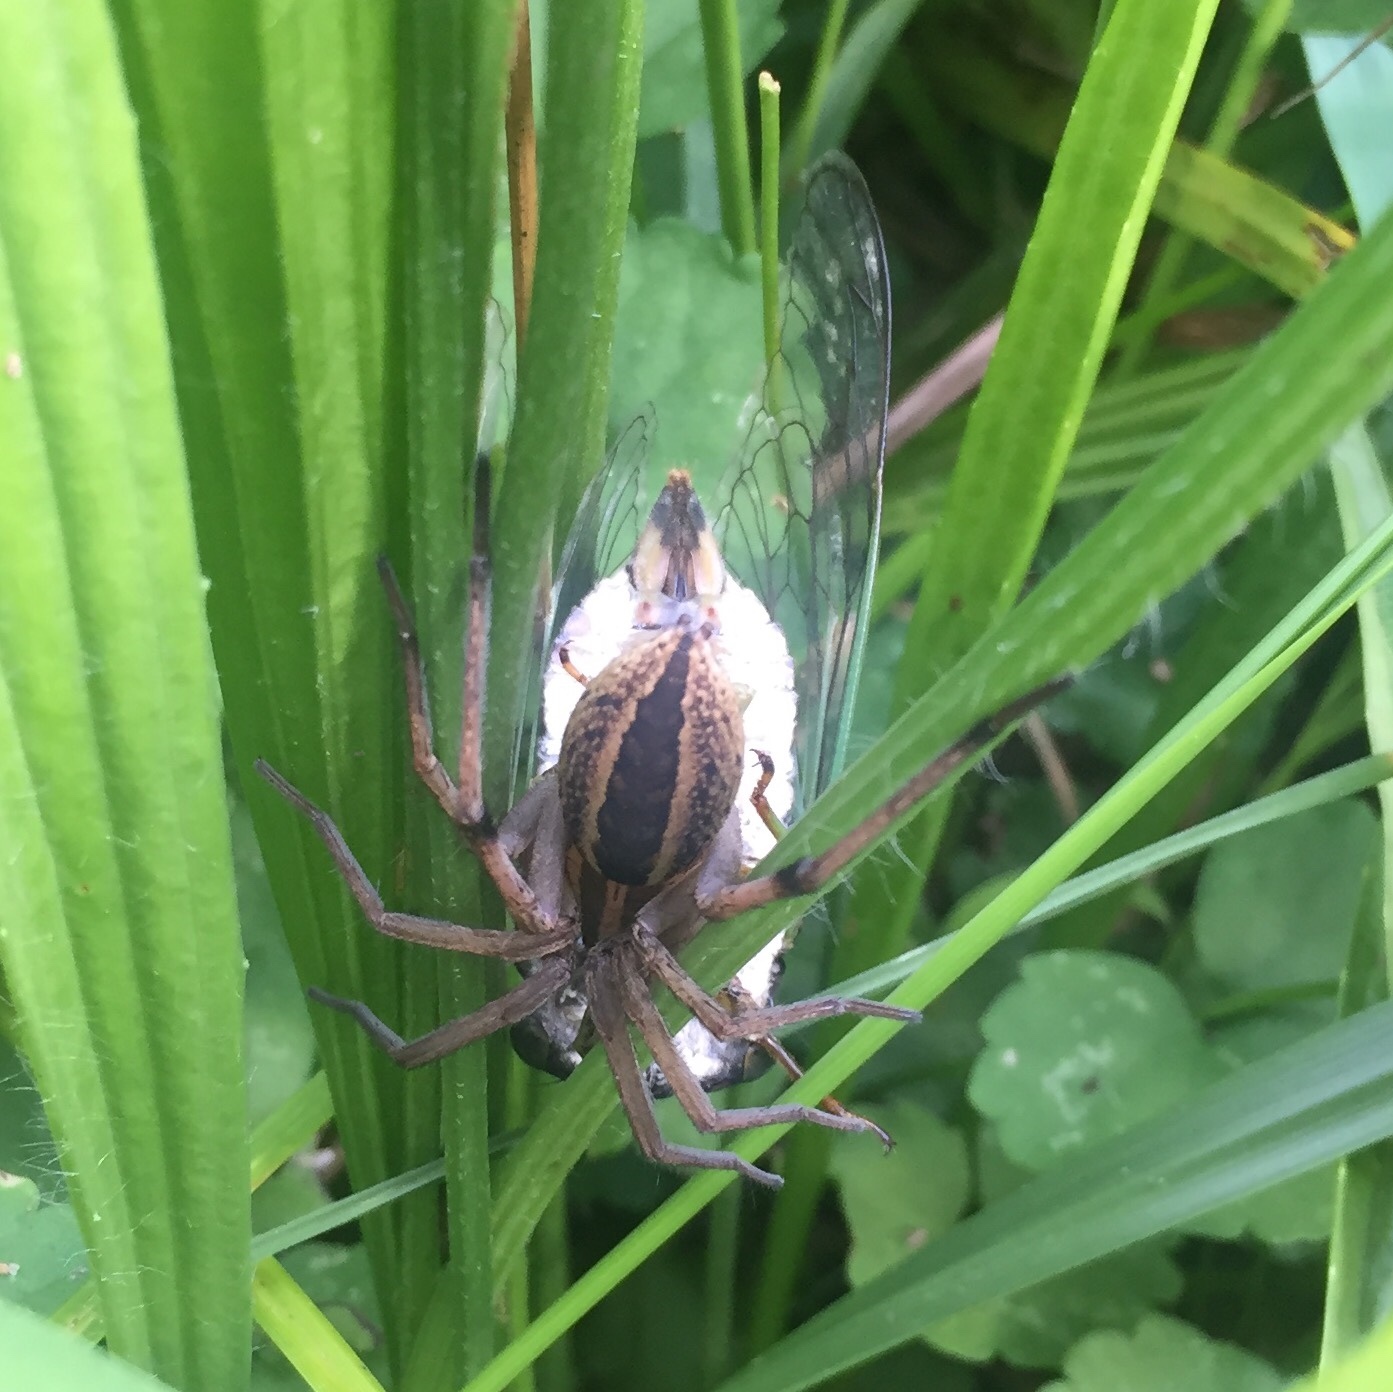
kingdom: Animalia
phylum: Arthropoda
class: Arachnida
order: Araneae
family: Lycosidae
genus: Rabidosa
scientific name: Rabidosa rabida
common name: Rabid wolf spider
